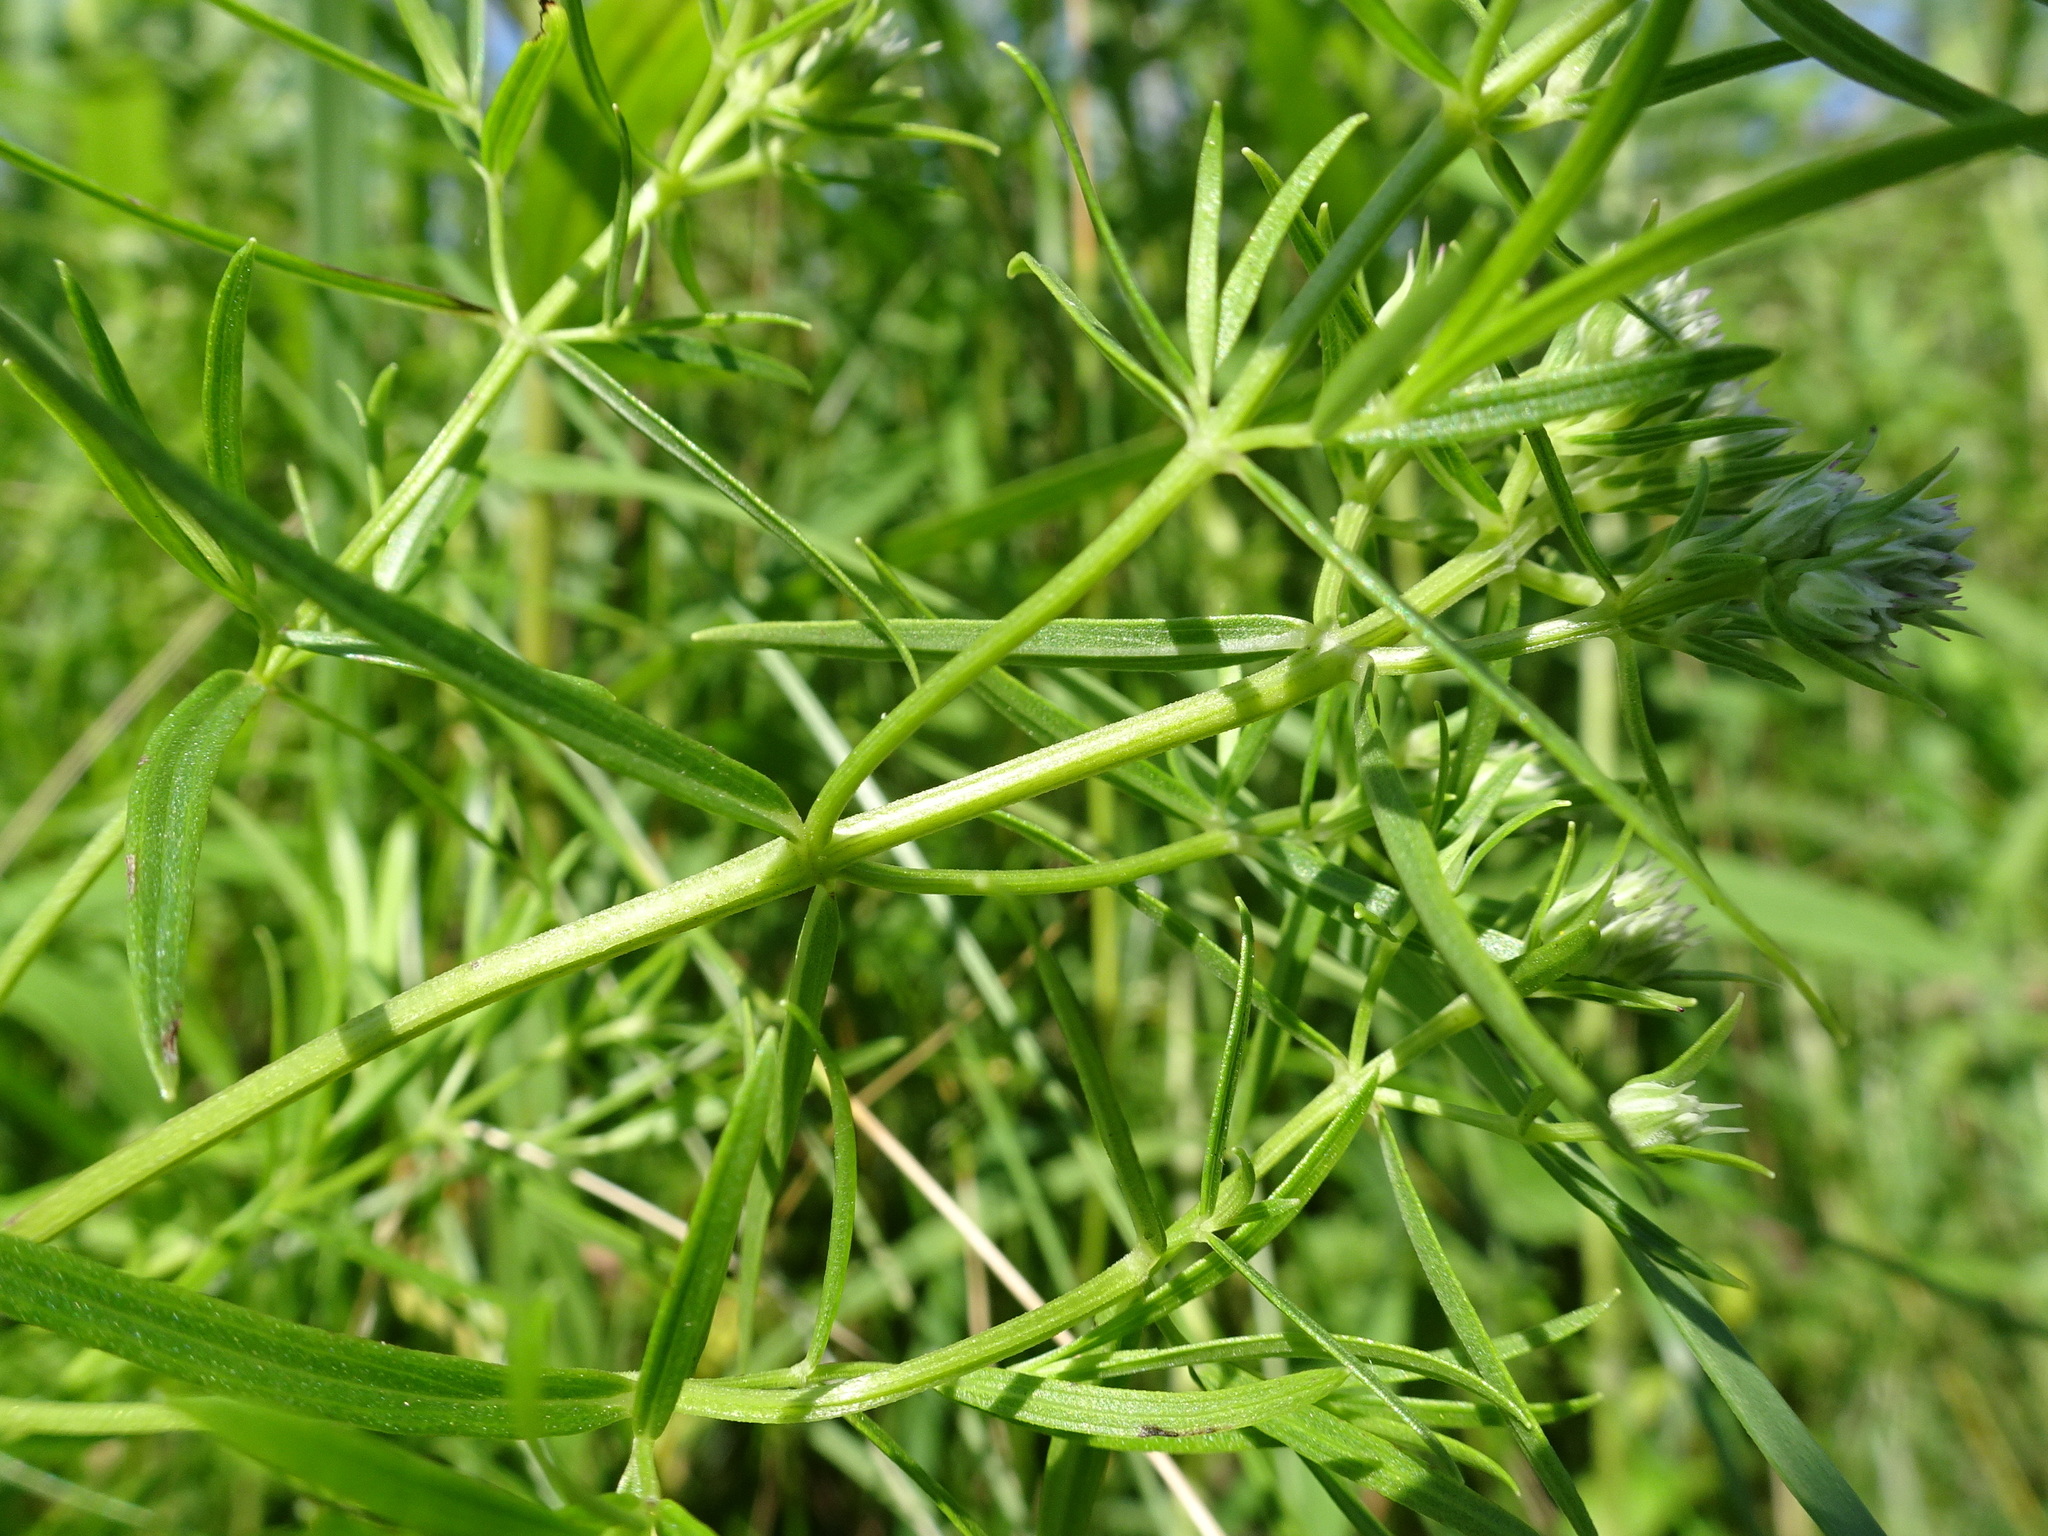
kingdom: Plantae
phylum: Tracheophyta
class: Magnoliopsida
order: Lamiales
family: Lamiaceae
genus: Pycnanthemum
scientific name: Pycnanthemum tenuifolium
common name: Narrow-leaf mountain-mint
